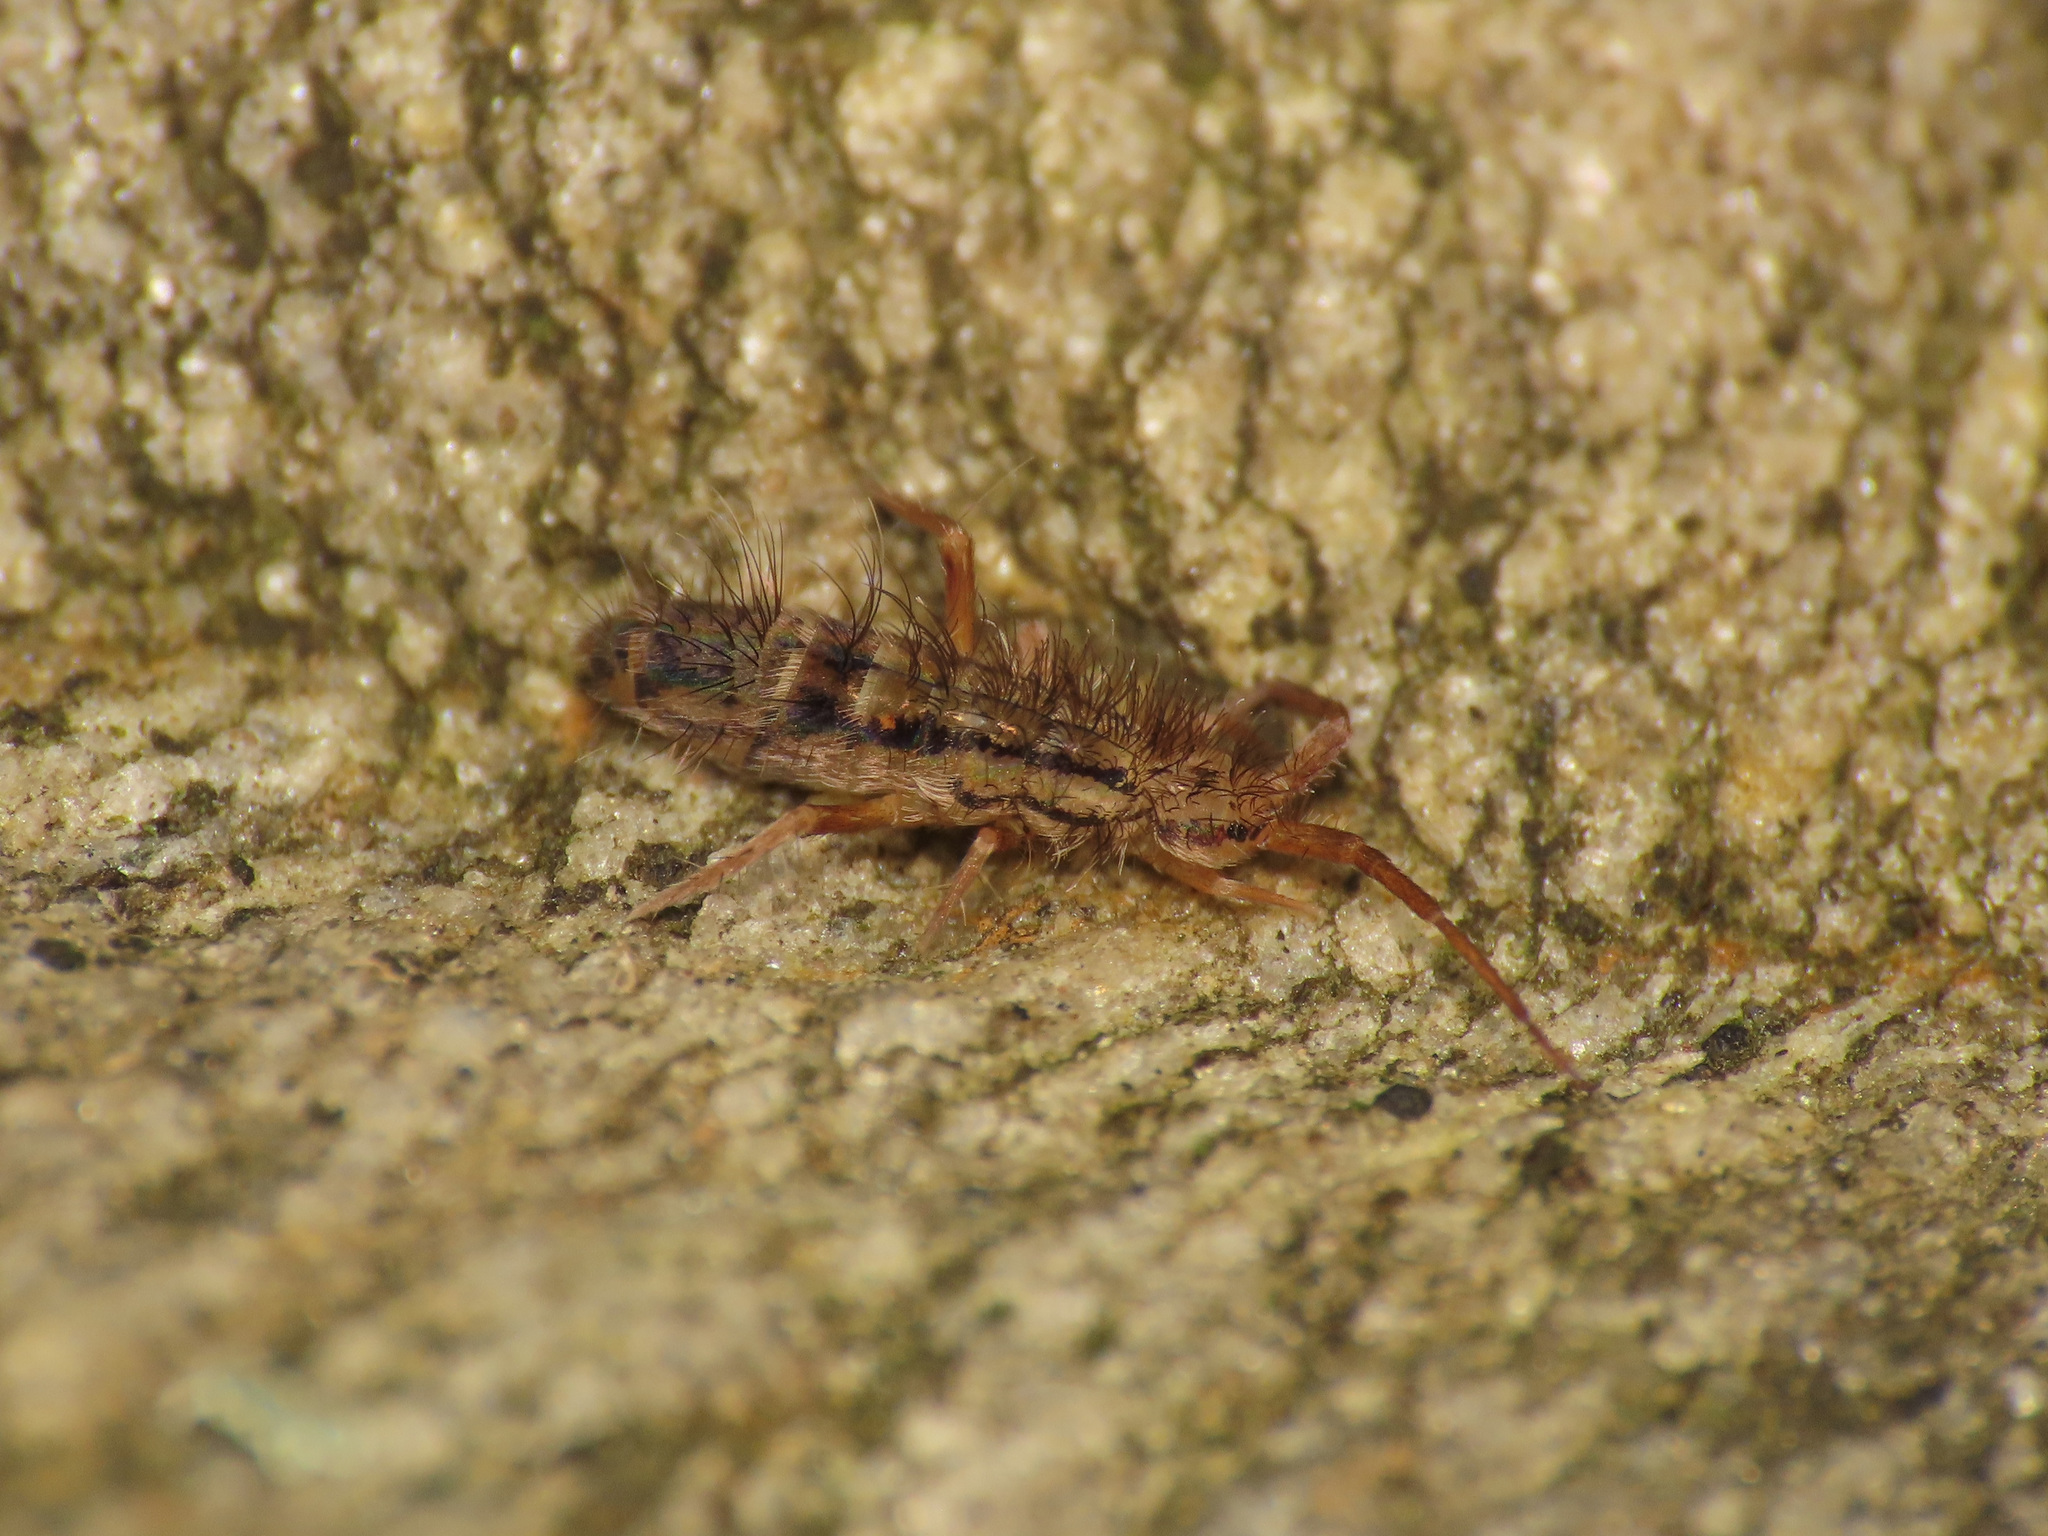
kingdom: Animalia
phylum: Arthropoda
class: Collembola
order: Entomobryomorpha
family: Orchesellidae
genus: Orchesella
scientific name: Orchesella cincta
